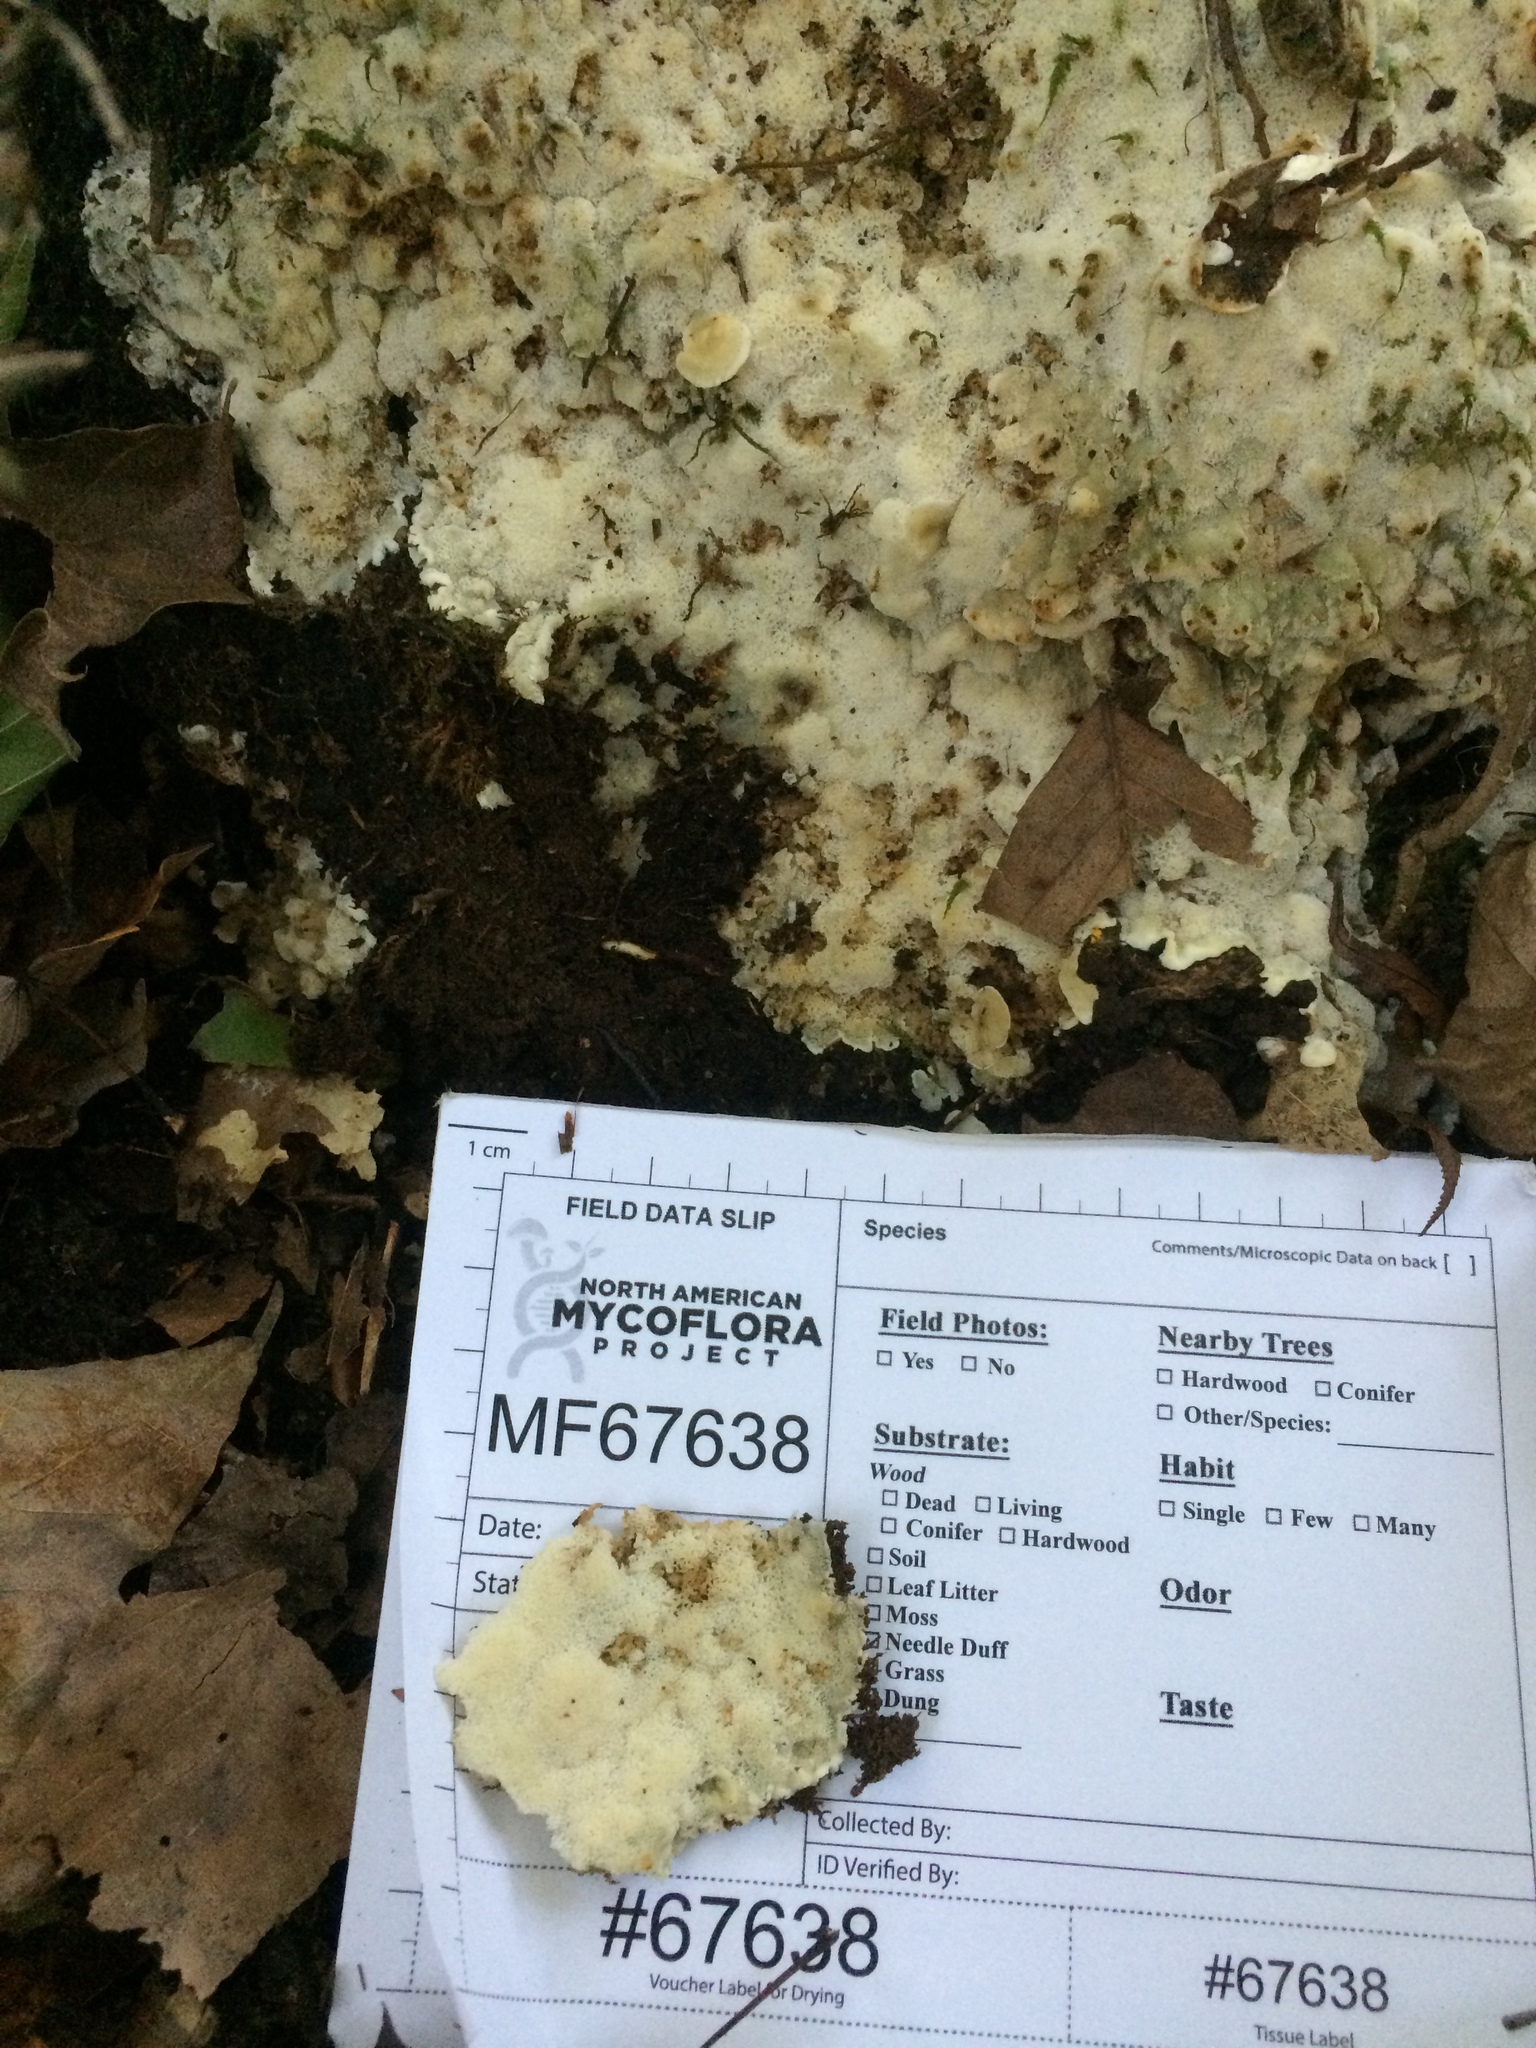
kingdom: Fungi
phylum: Basidiomycota
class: Agaricomycetes
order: Polyporales
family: Meripilaceae
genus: Rigidoporus
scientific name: Rigidoporus pouzarii
